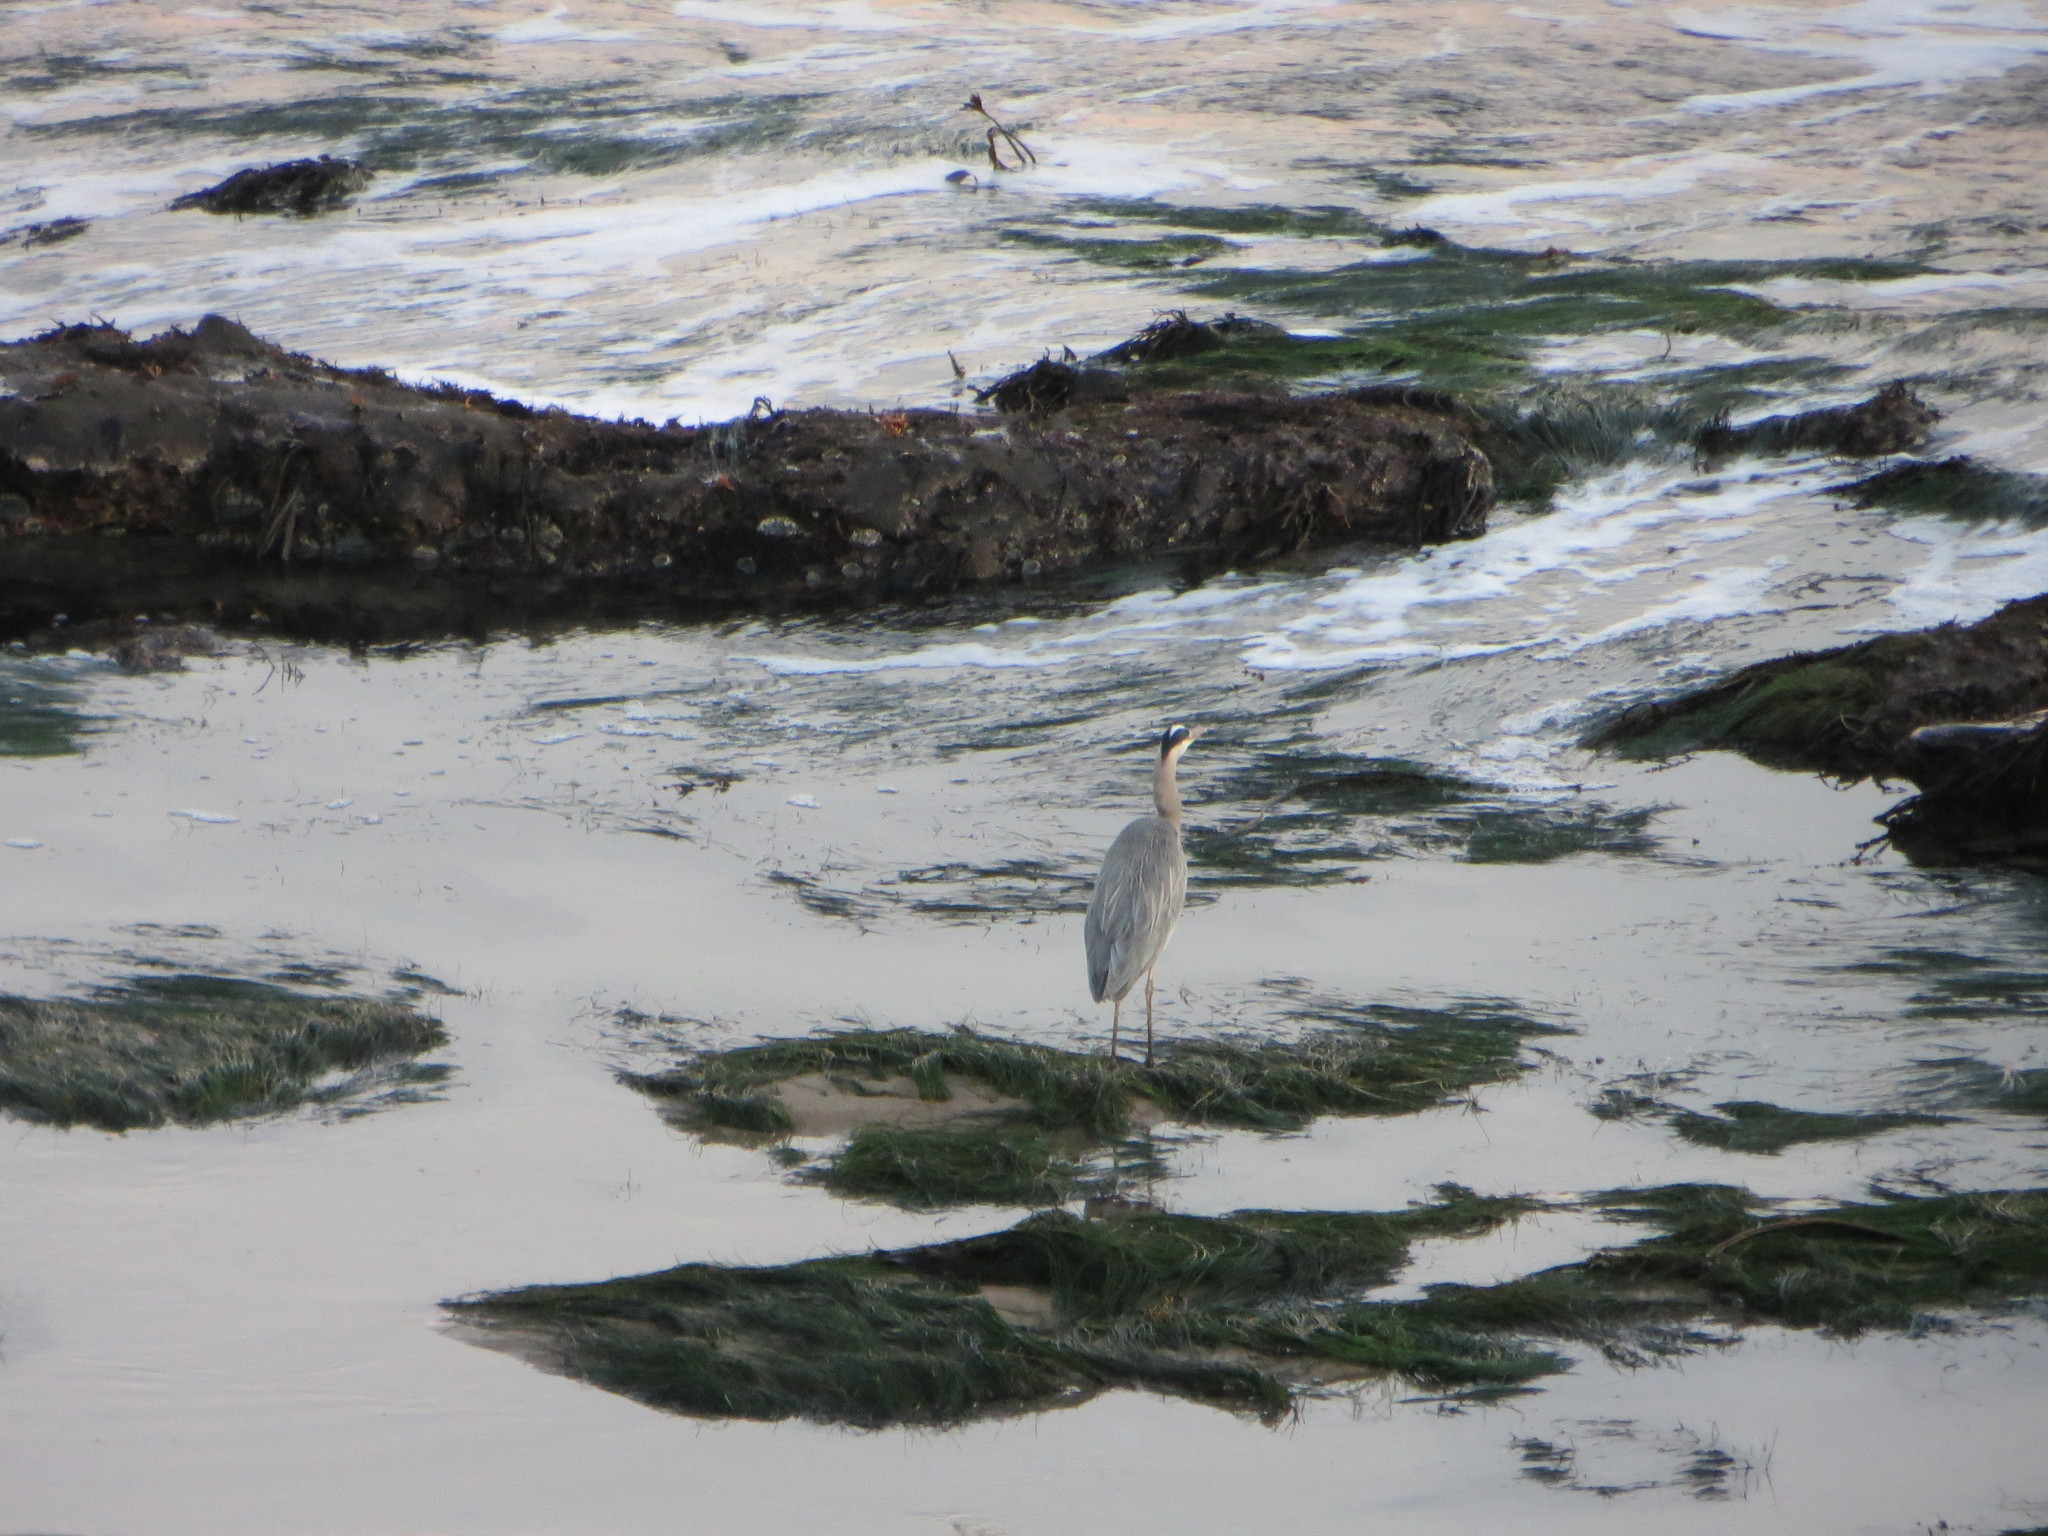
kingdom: Animalia
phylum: Chordata
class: Aves
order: Pelecaniformes
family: Ardeidae
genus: Ardea
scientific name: Ardea herodias
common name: Great blue heron
